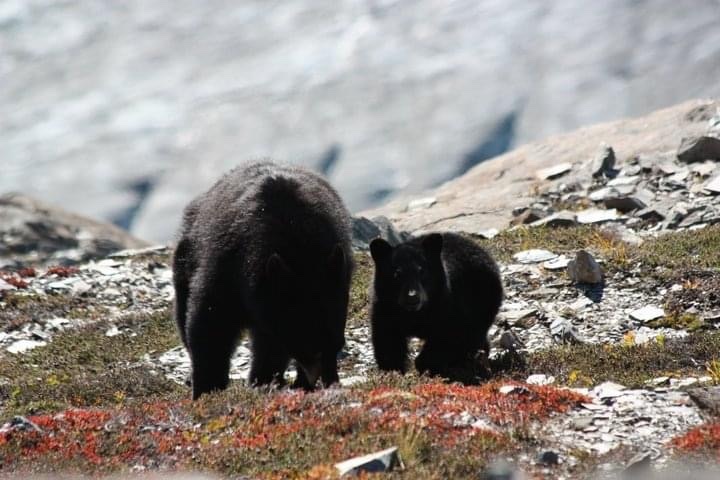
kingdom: Animalia
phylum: Chordata
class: Mammalia
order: Carnivora
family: Ursidae
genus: Ursus
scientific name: Ursus americanus
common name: American black bear
